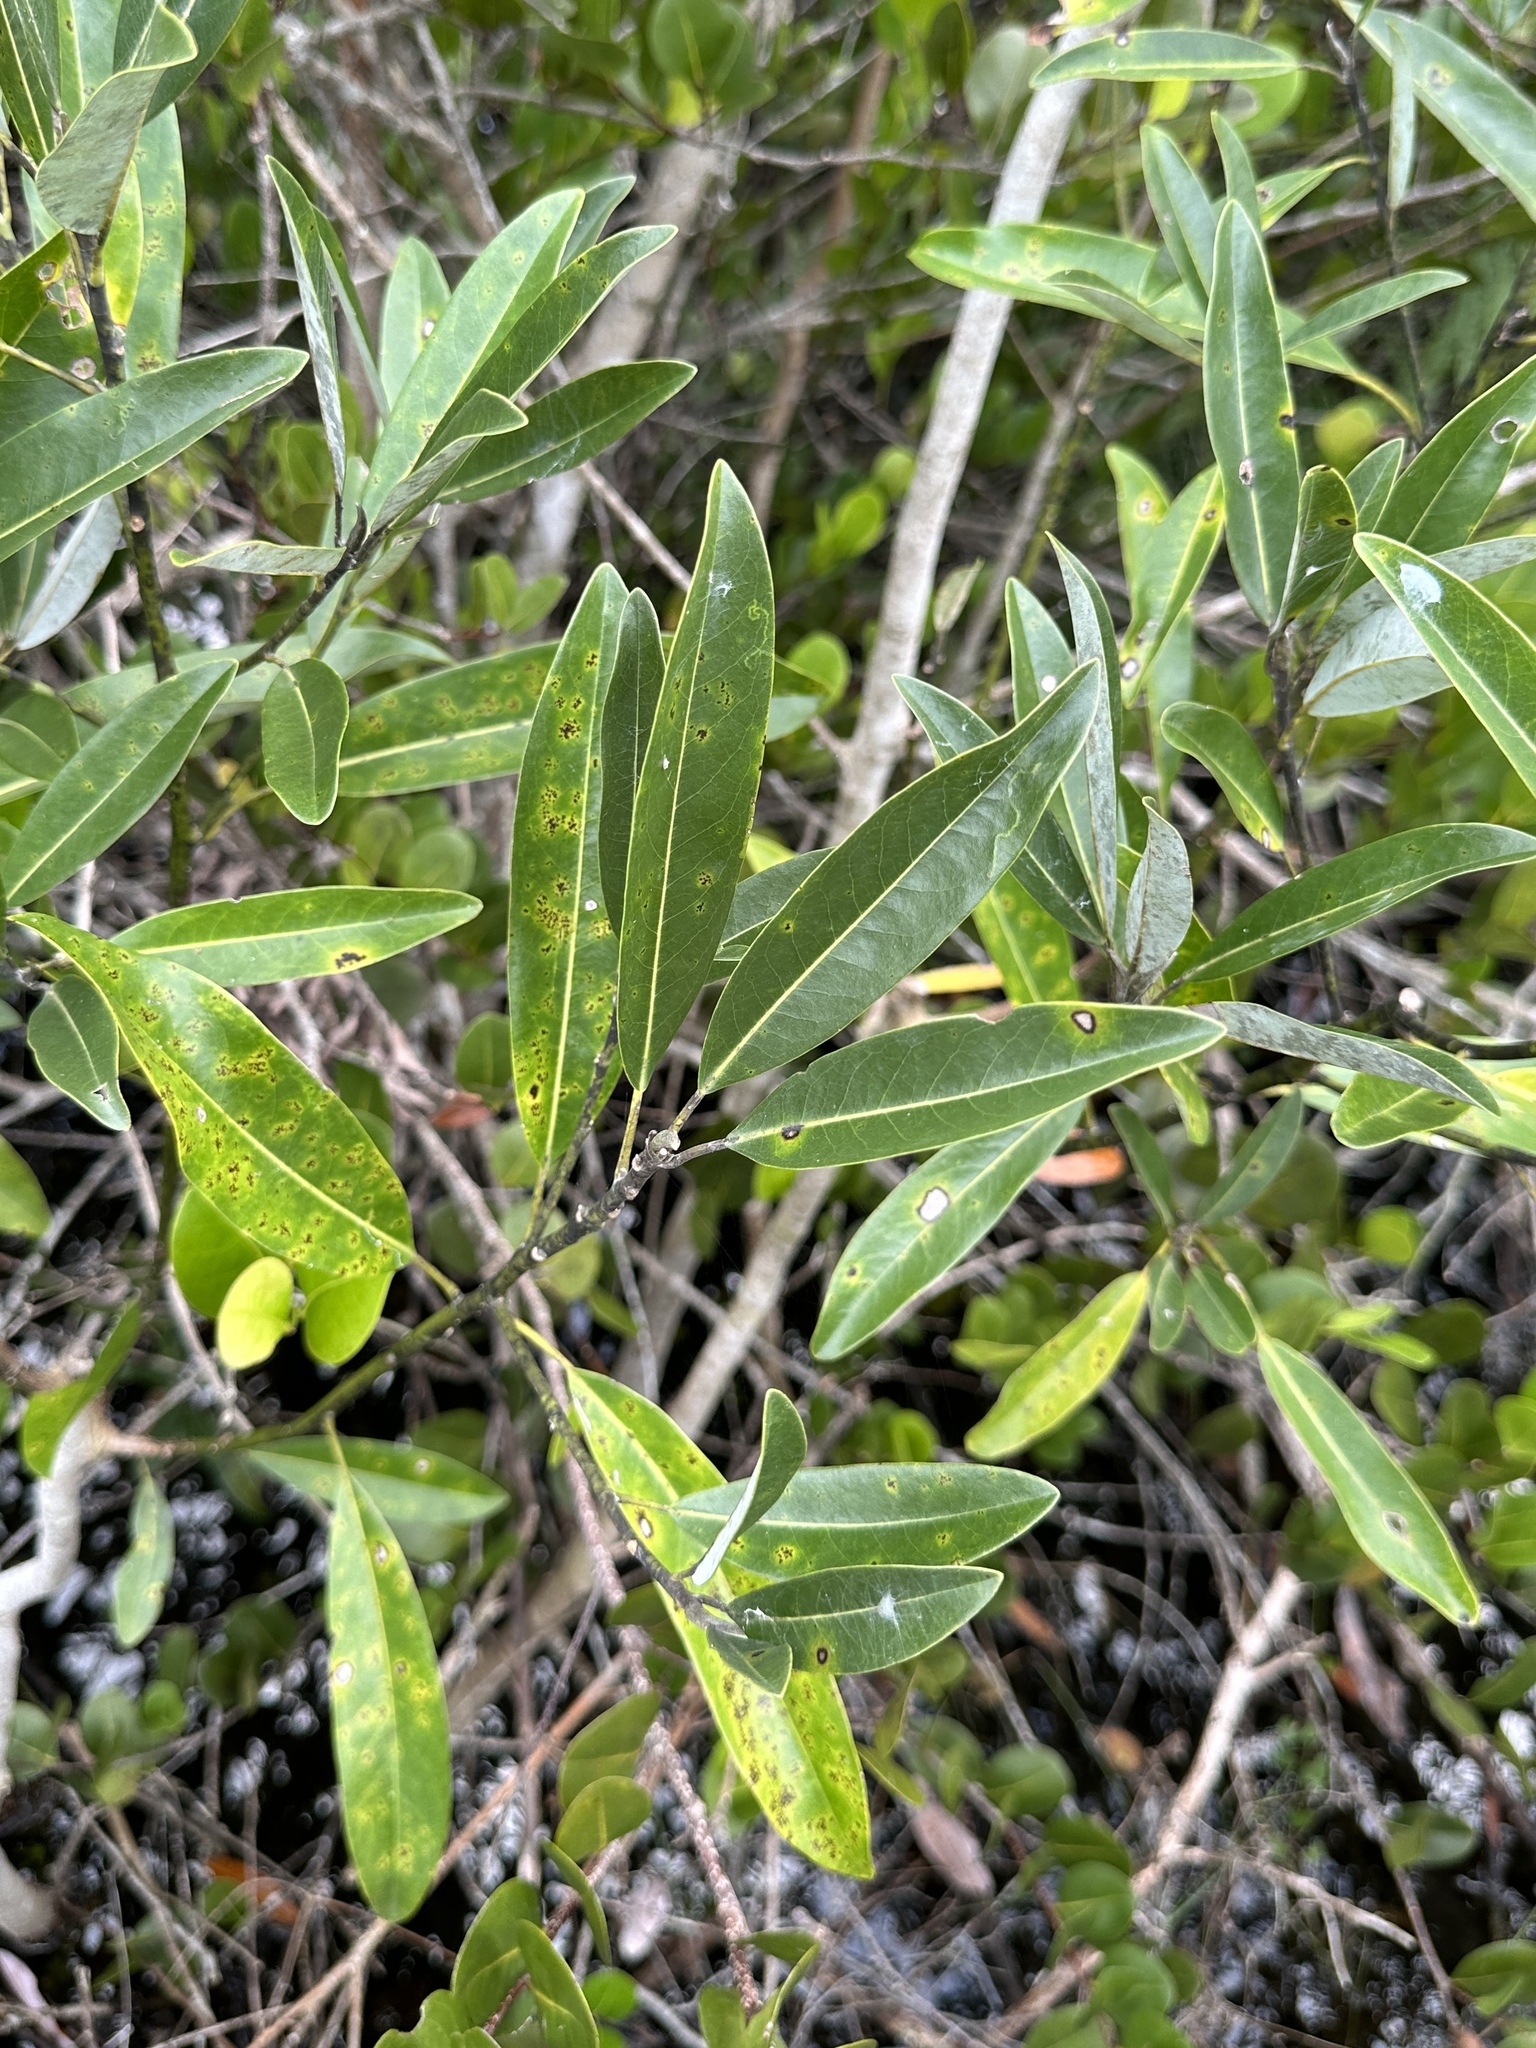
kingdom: Plantae
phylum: Tracheophyta
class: Magnoliopsida
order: Magnoliales
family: Magnoliaceae
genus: Magnolia
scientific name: Magnolia virginiana
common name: Swamp bay
